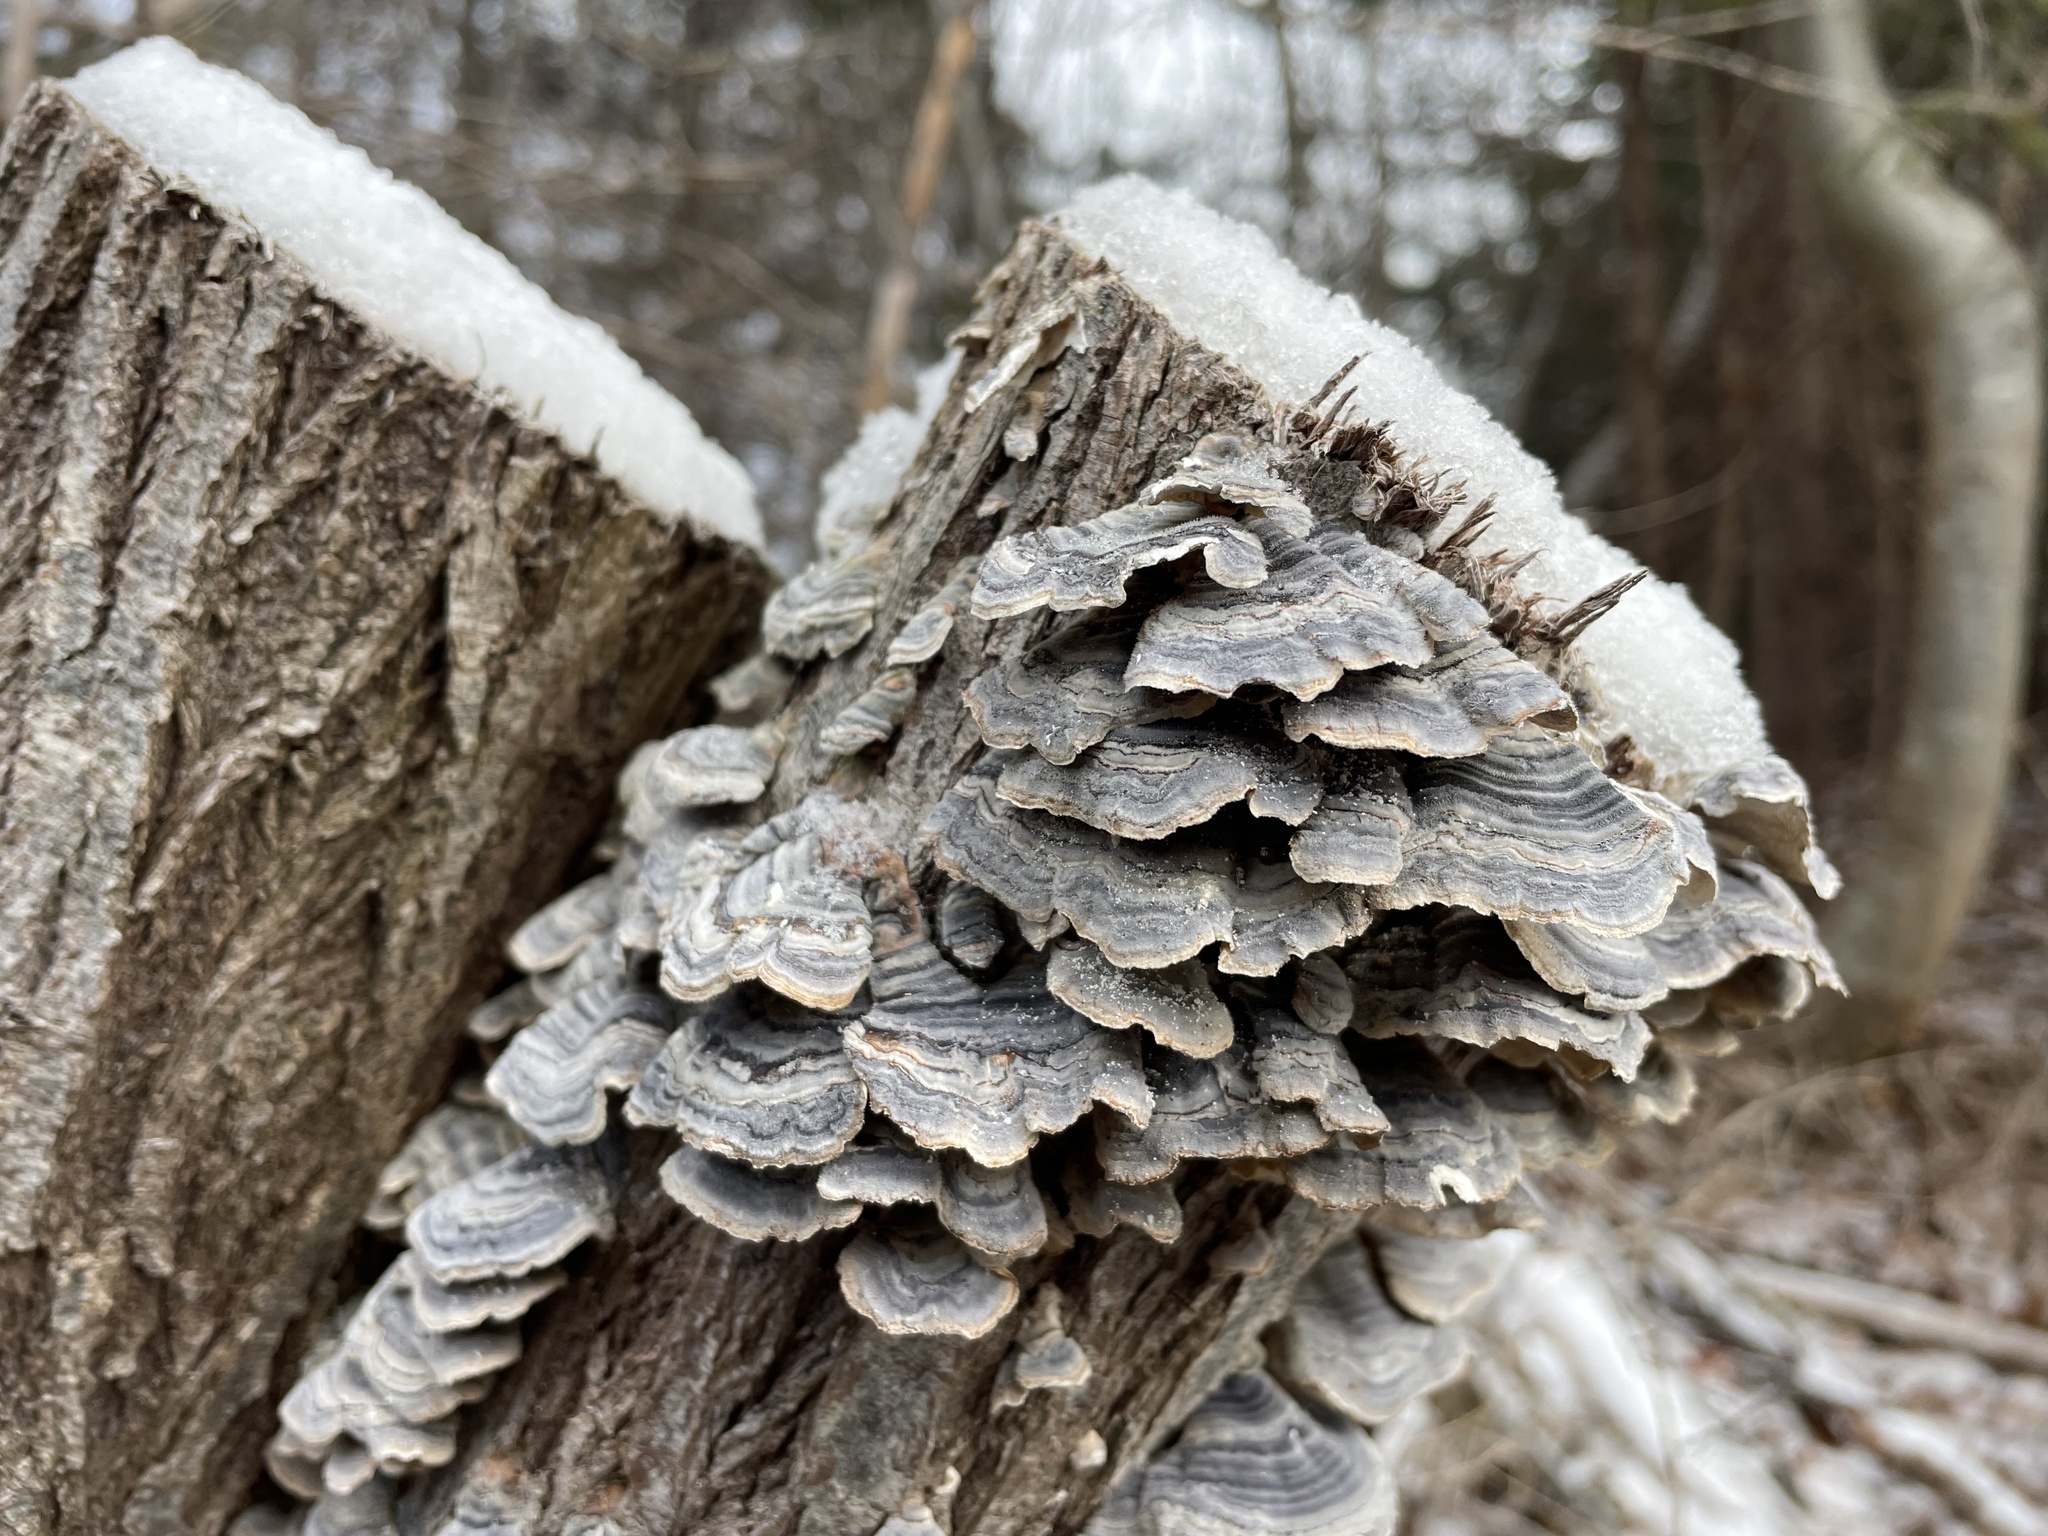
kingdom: Fungi
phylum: Basidiomycota
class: Agaricomycetes
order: Polyporales
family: Polyporaceae
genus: Trametes
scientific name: Trametes versicolor
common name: Turkeytail
